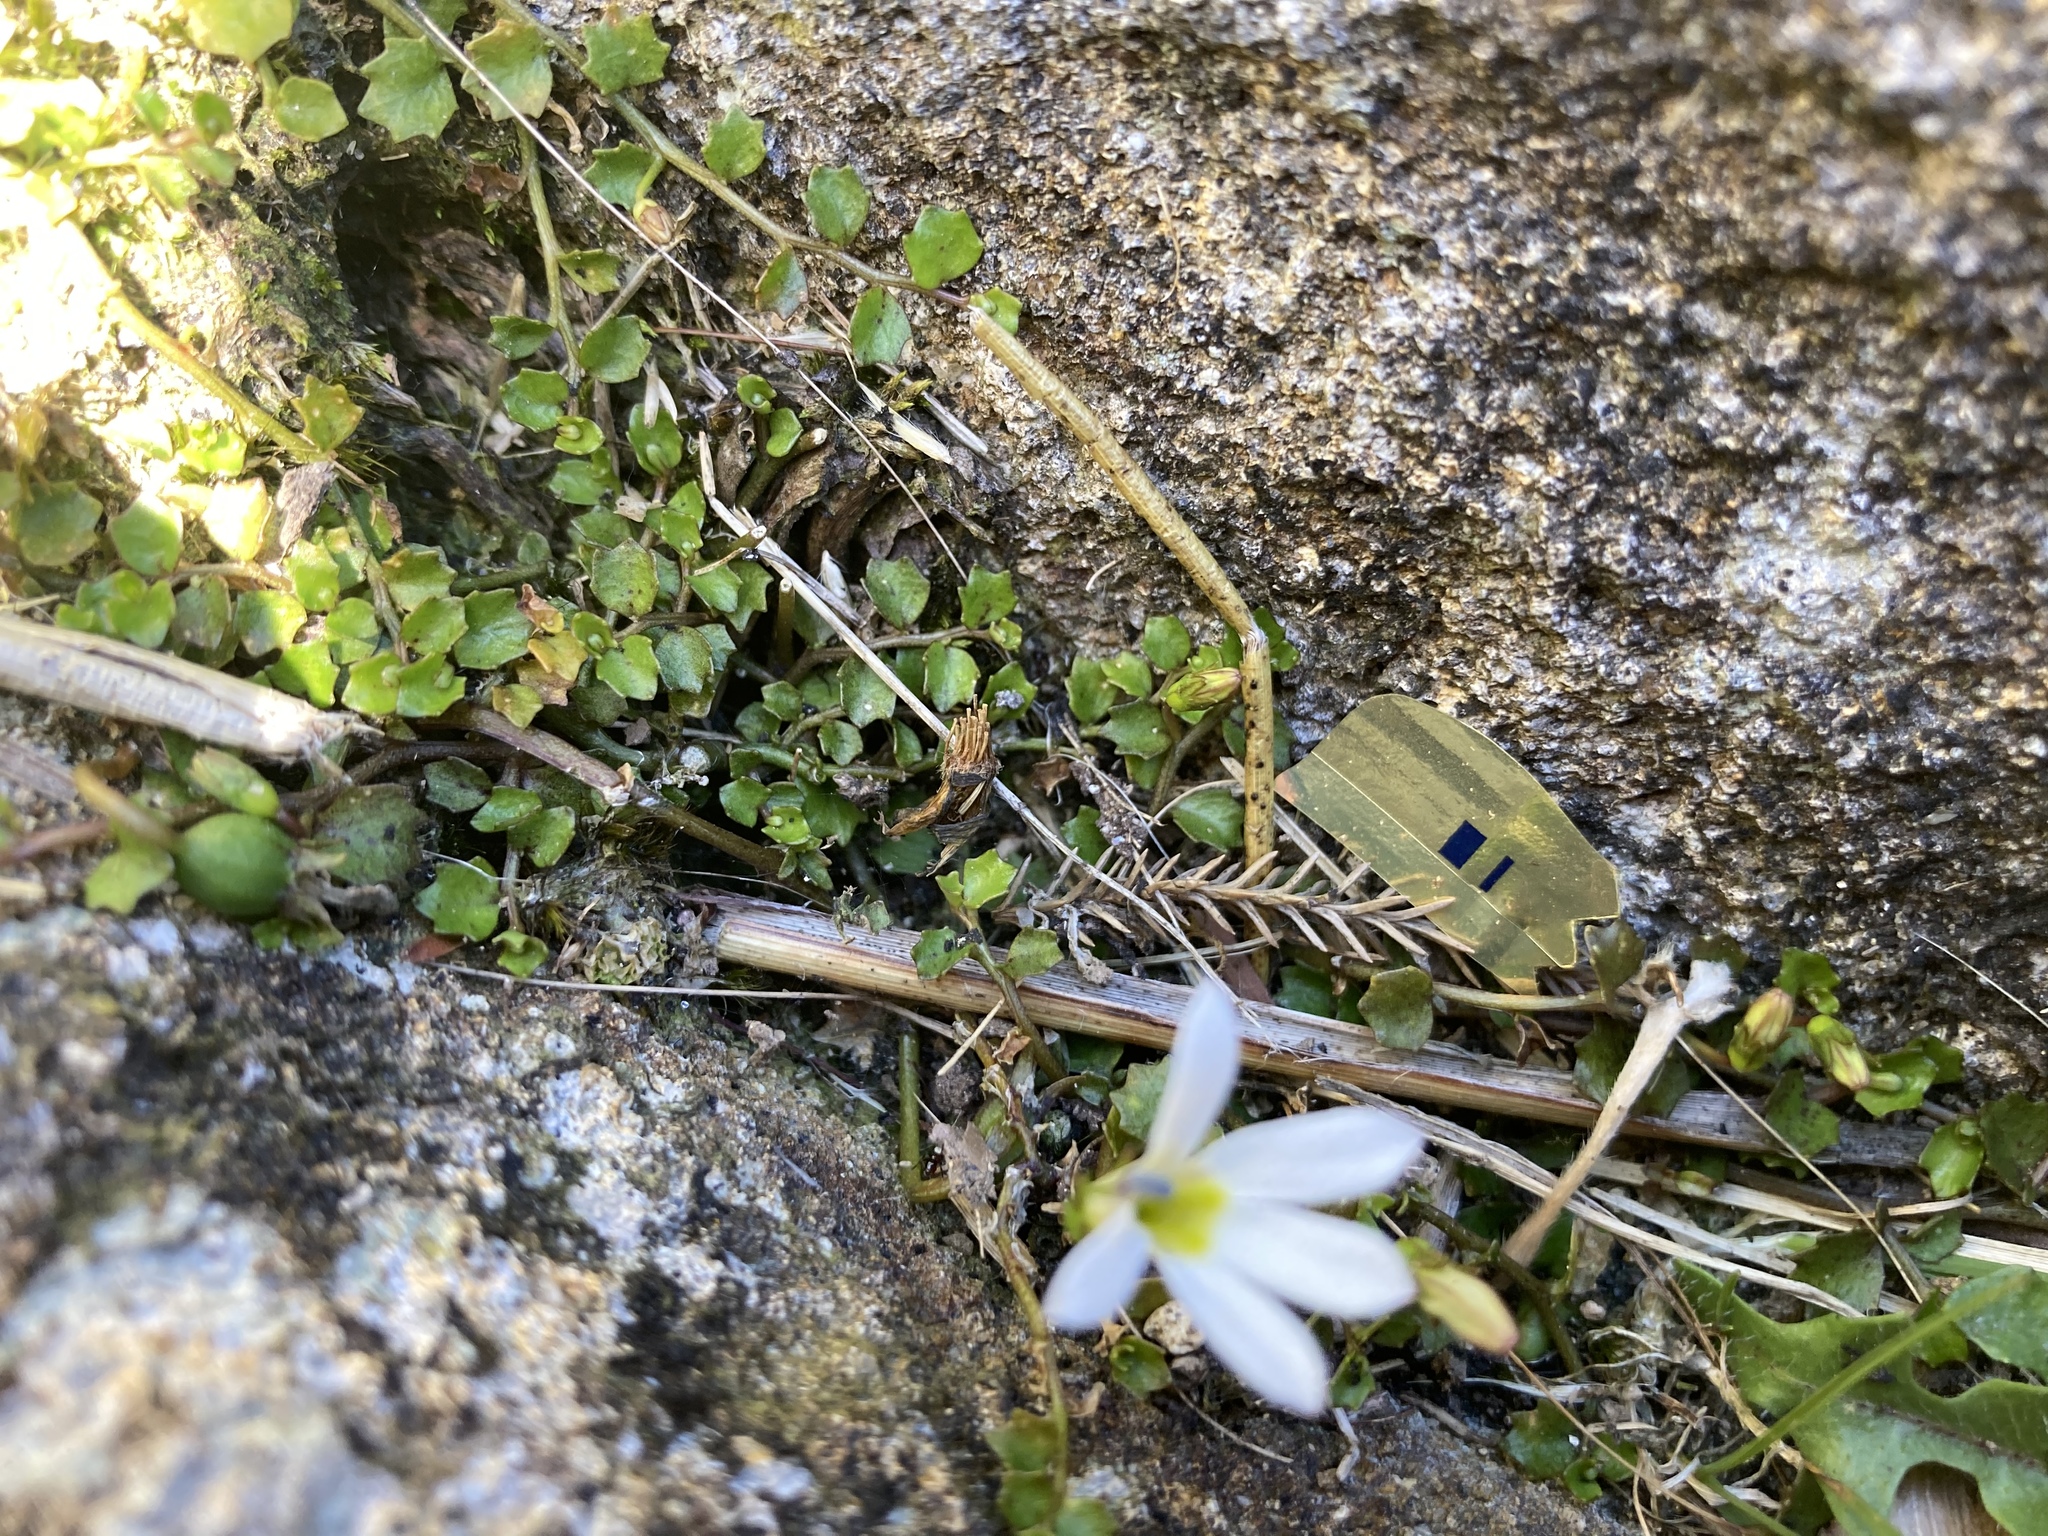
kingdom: Plantae
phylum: Tracheophyta
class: Magnoliopsida
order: Asterales
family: Campanulaceae
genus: Lobelia
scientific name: Lobelia angulata
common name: Lawn lobelia
